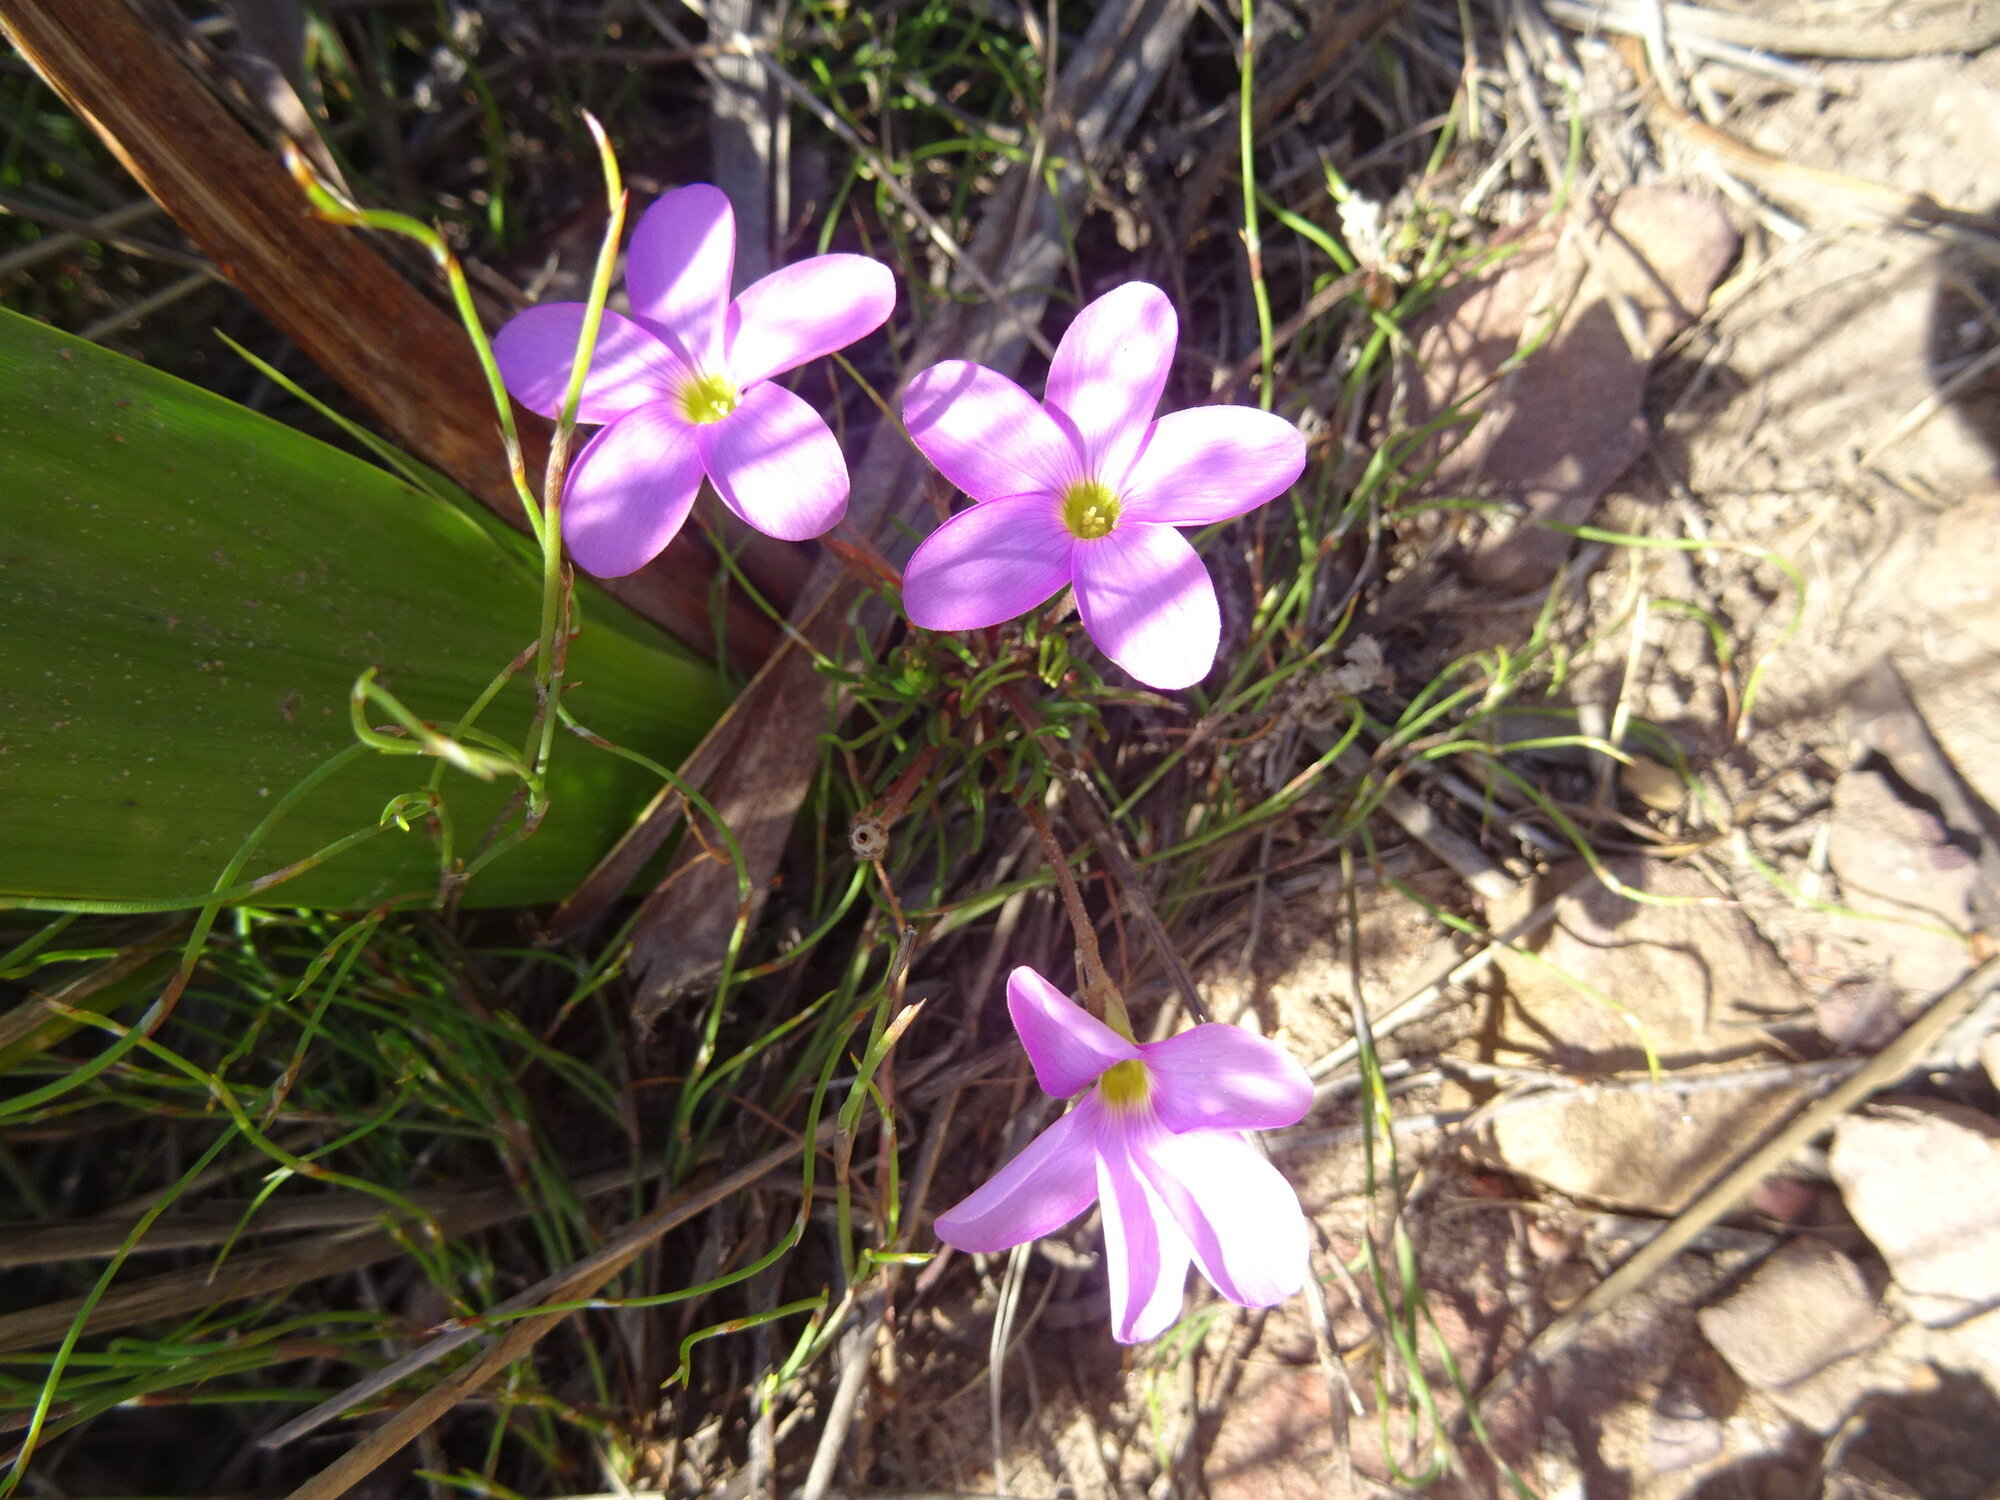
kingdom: Plantae
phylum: Tracheophyta
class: Magnoliopsida
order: Oxalidales
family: Oxalidaceae
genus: Oxalis
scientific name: Oxalis polyphylla
